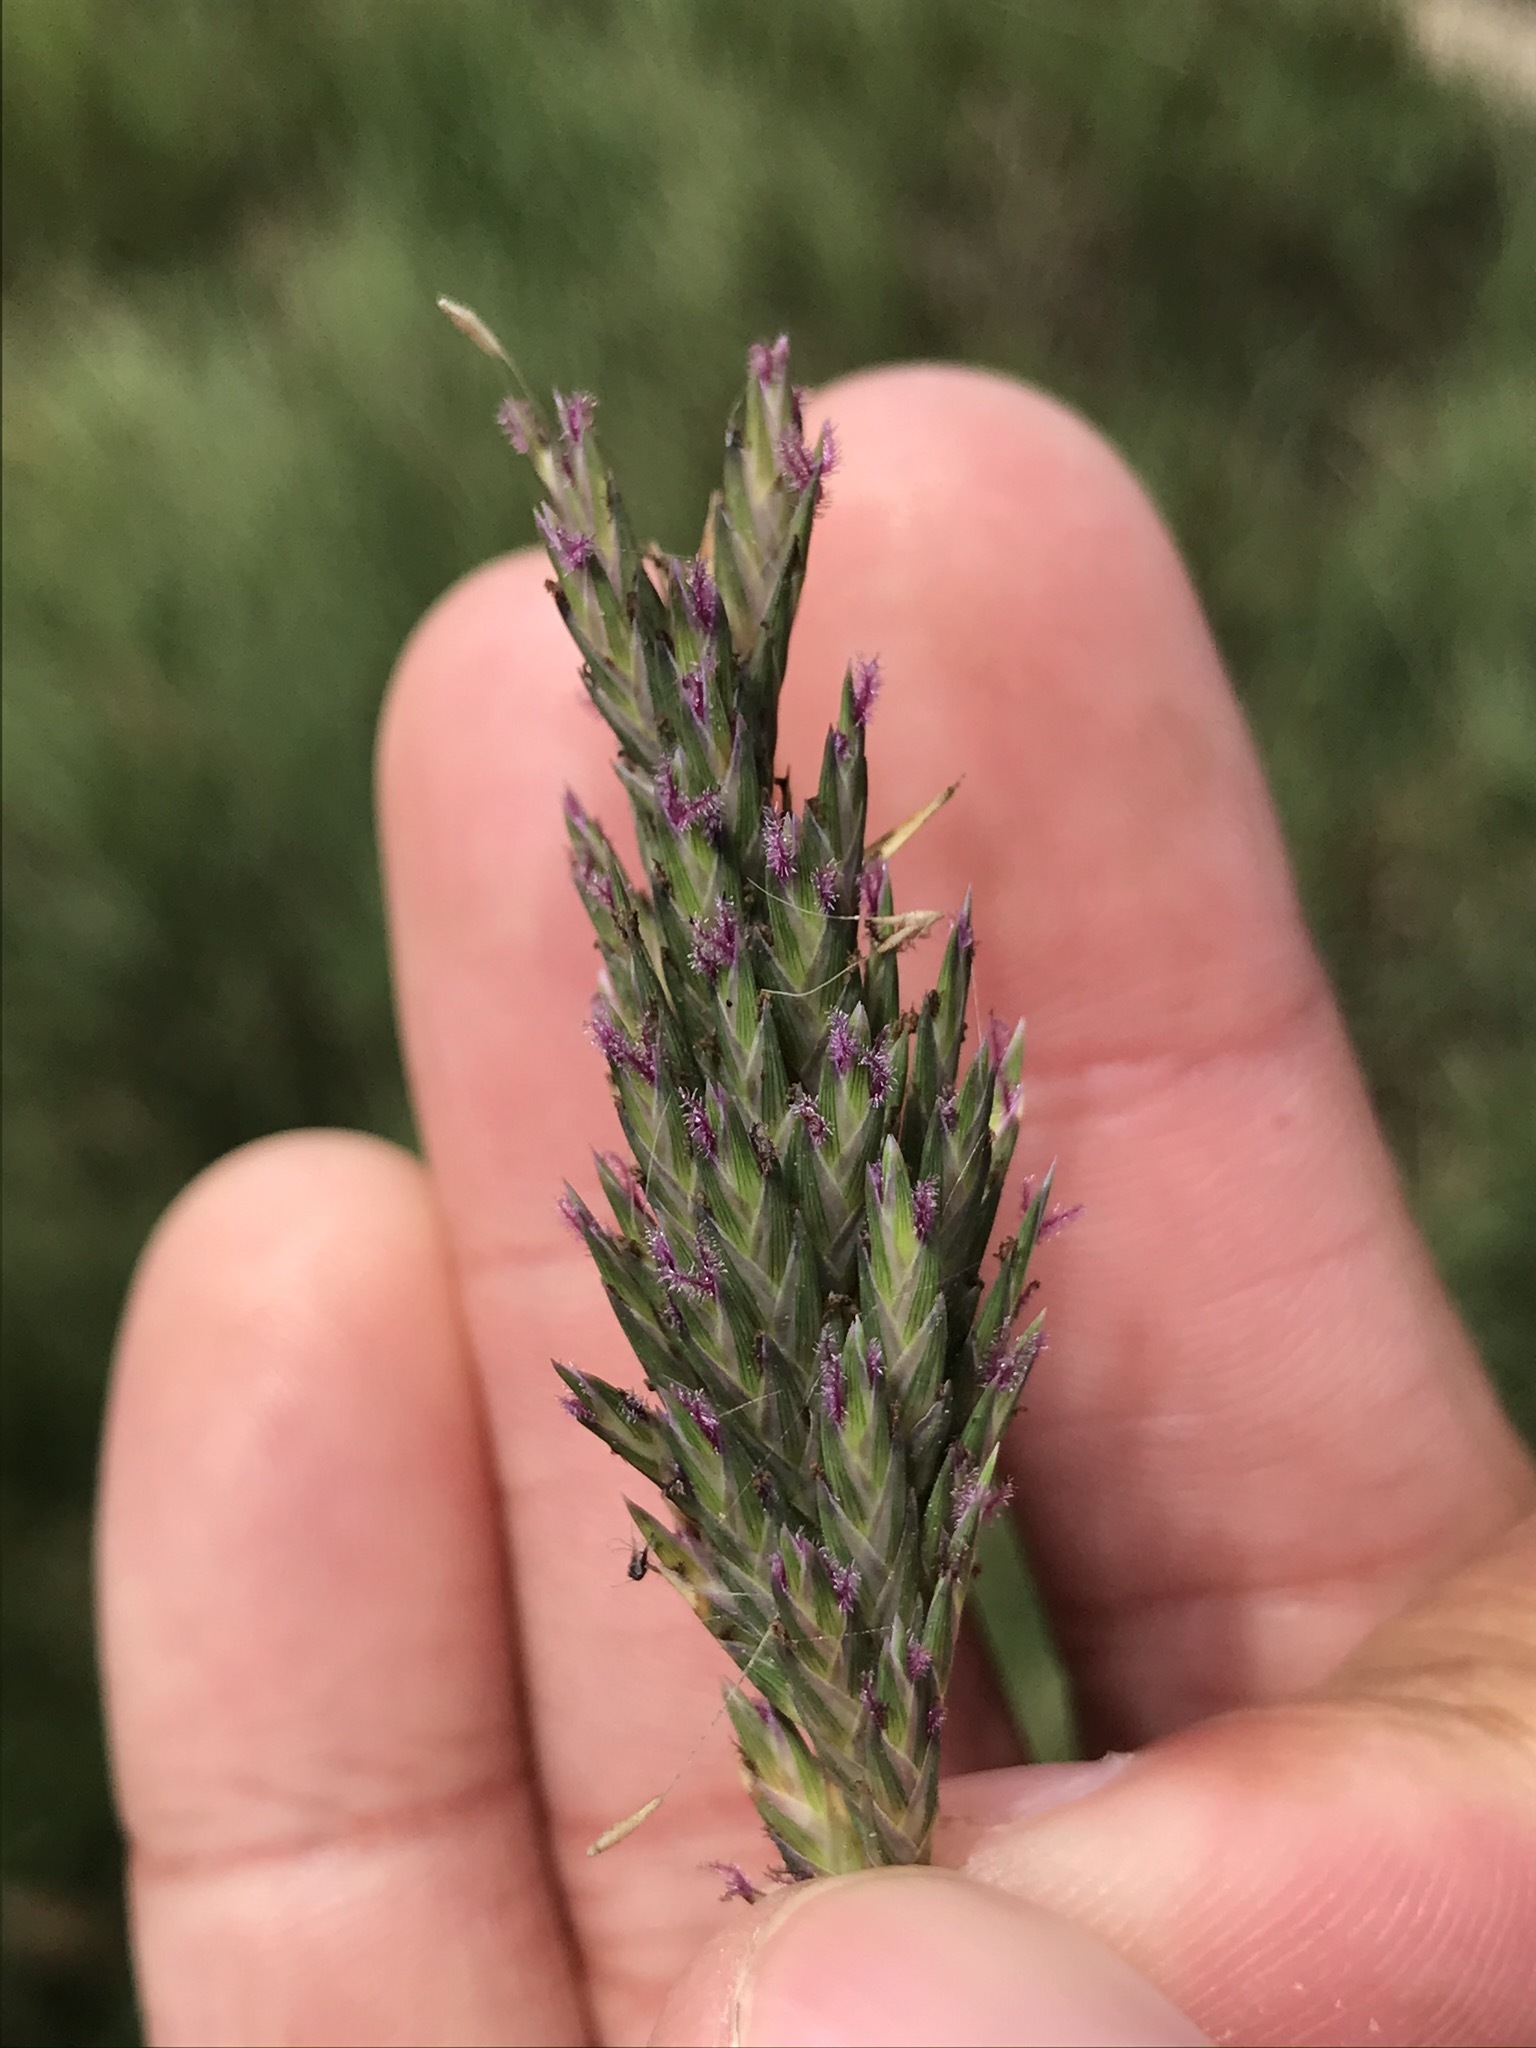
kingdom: Plantae
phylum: Tracheophyta
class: Liliopsida
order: Poales
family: Poaceae
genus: Distichlis
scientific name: Distichlis spicata
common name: Saltgrass
